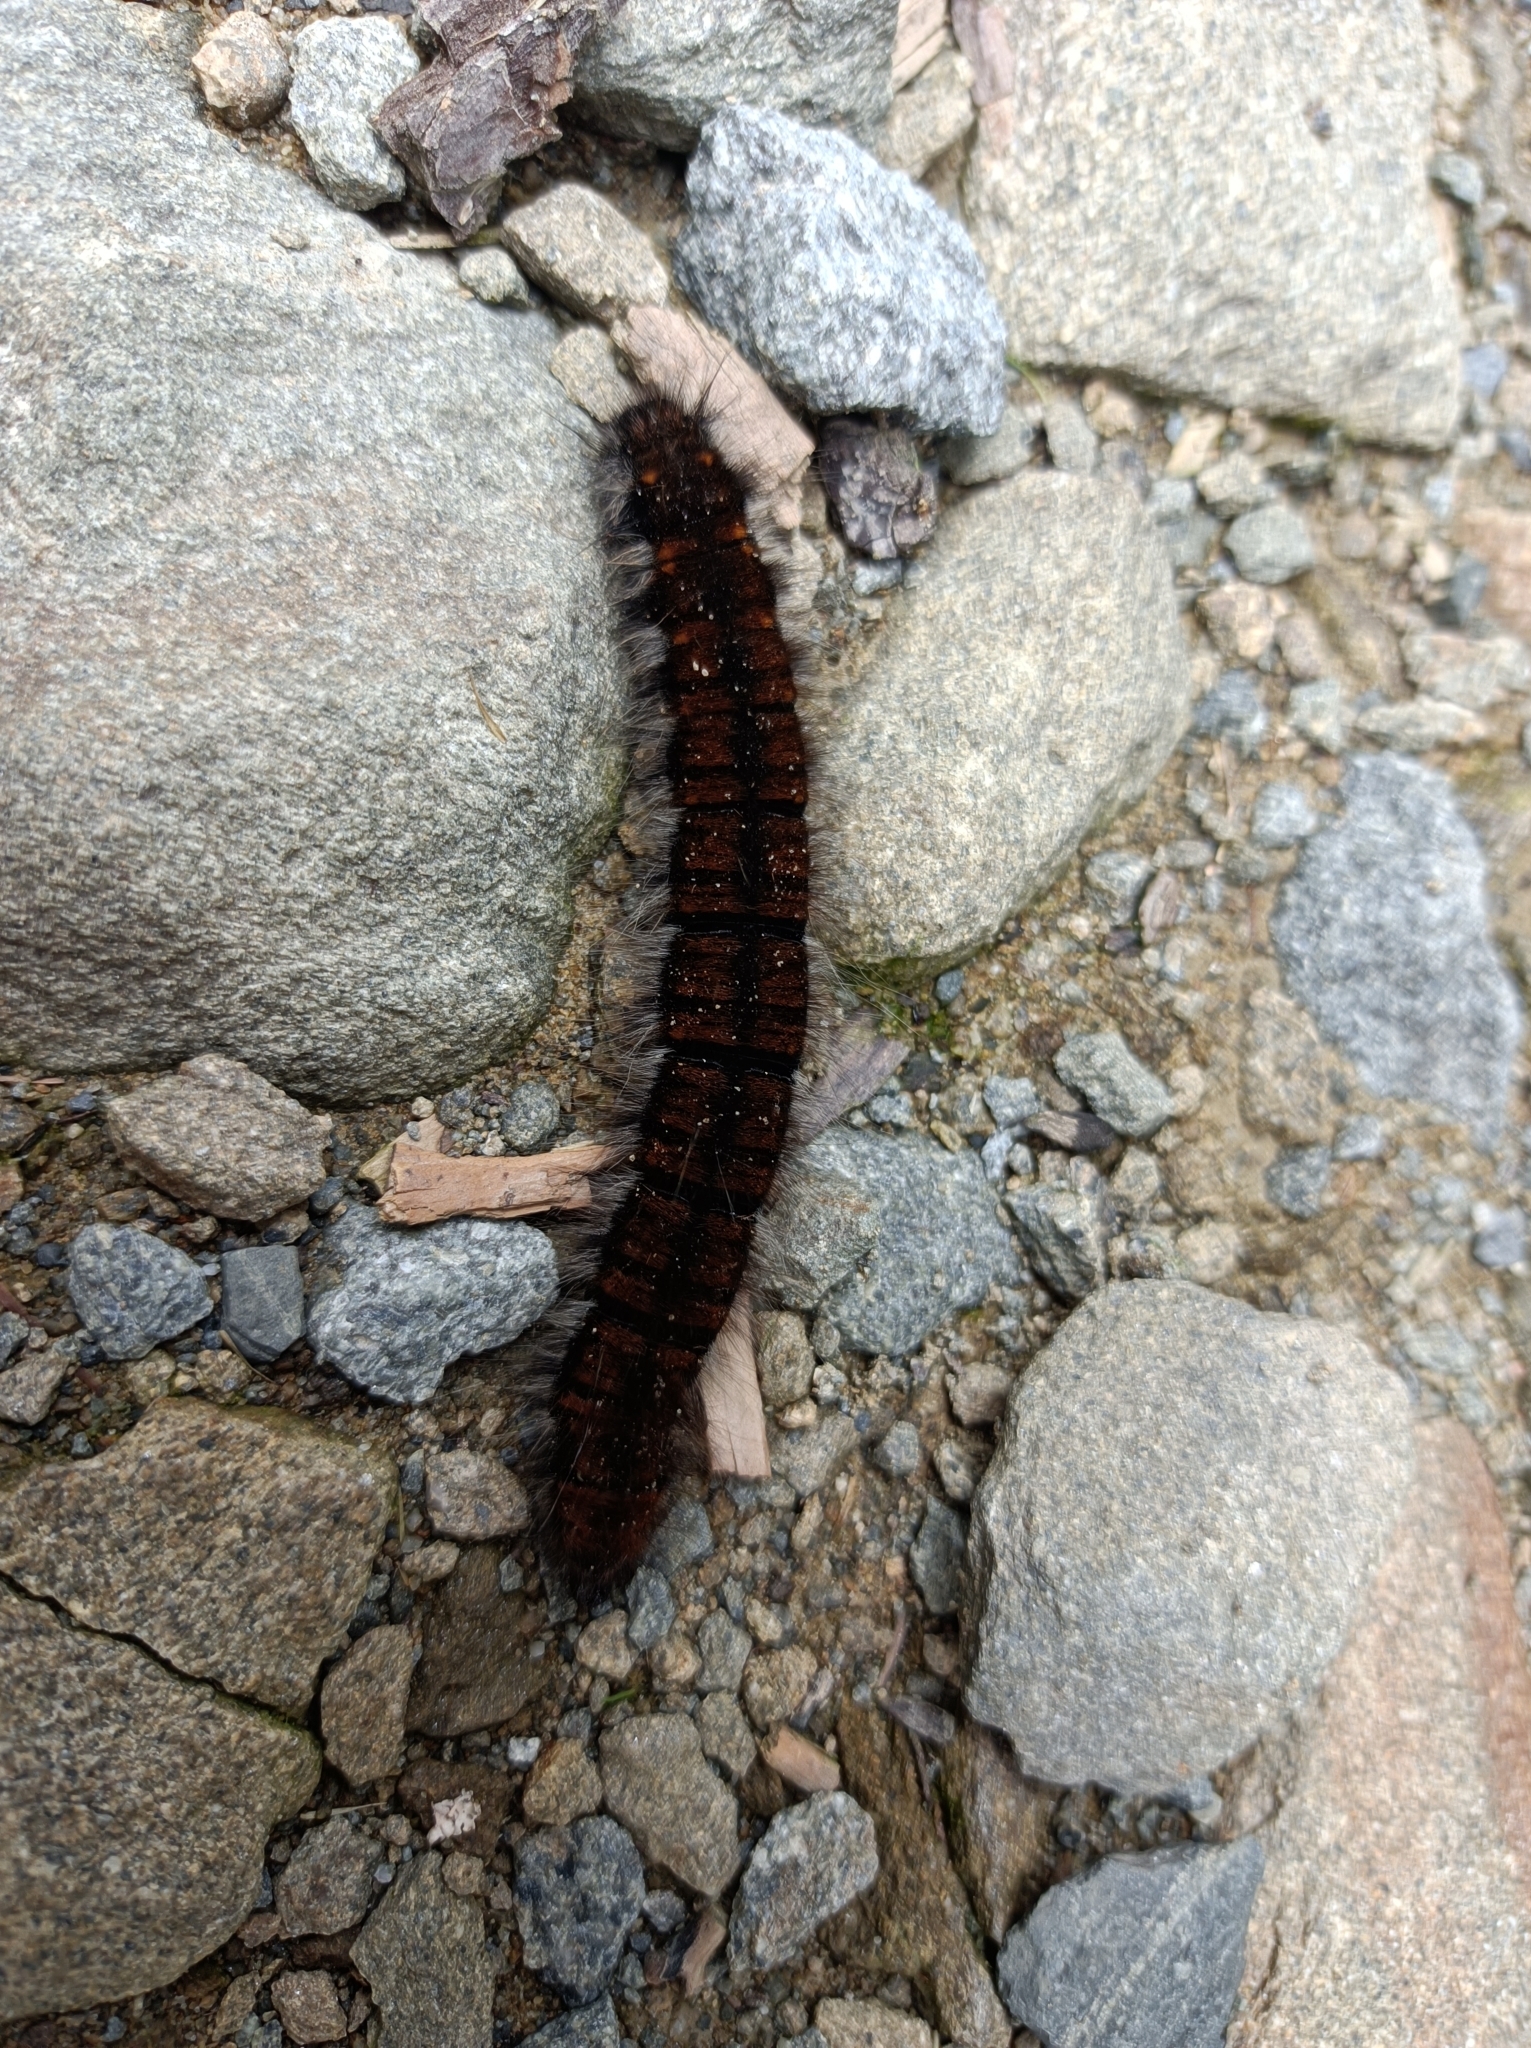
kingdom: Animalia
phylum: Arthropoda
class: Insecta
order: Lepidoptera
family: Lasiocampidae
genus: Macrothylacia
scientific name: Macrothylacia rubi
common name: Fox moth
